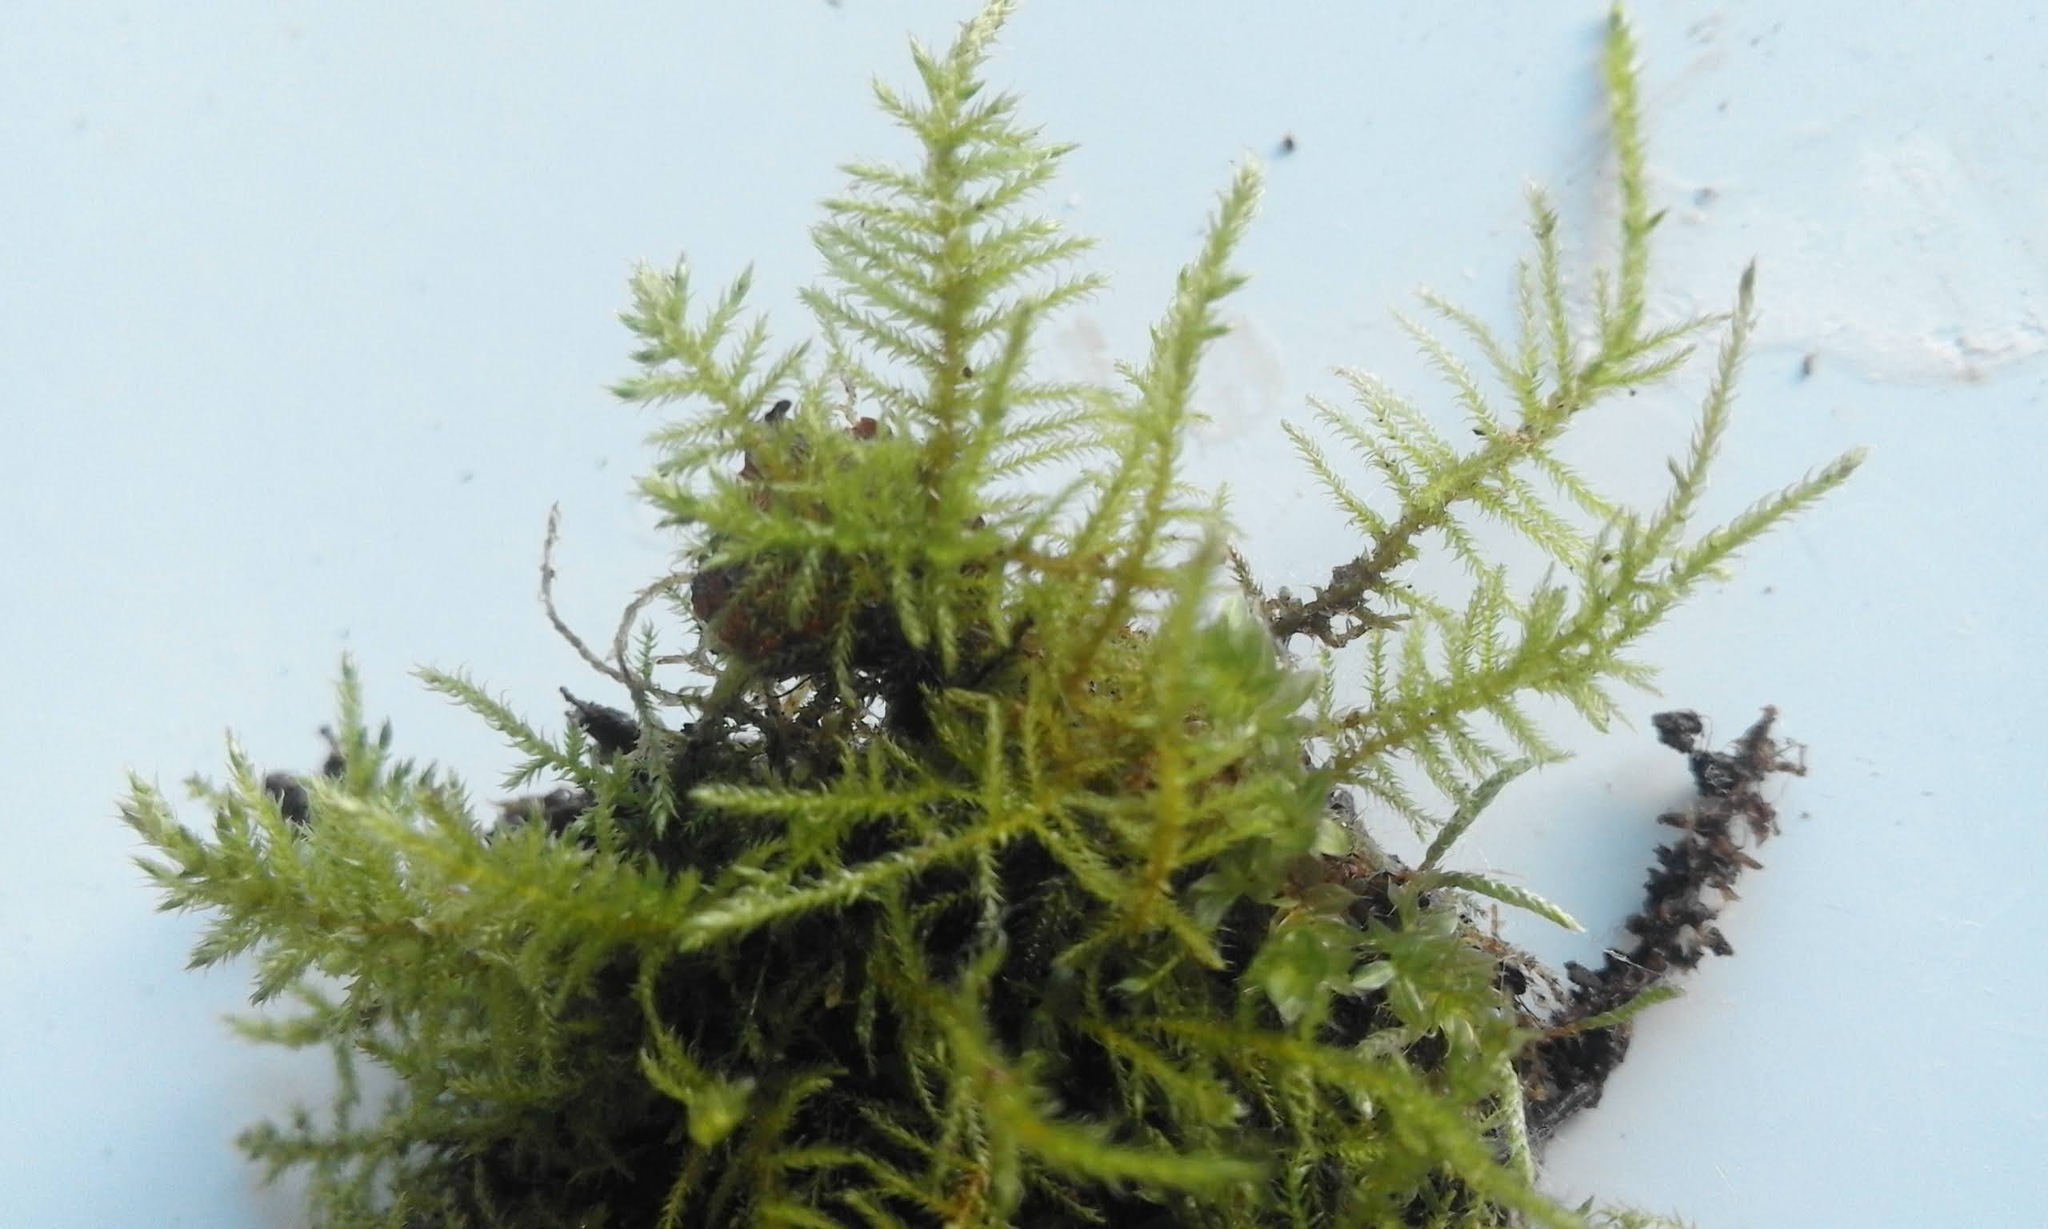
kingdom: Plantae
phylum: Bryophyta
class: Bryopsida
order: Hypnales
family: Brachytheciaceae
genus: Kindbergia
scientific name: Kindbergia praelonga
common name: Slender beaked moss
